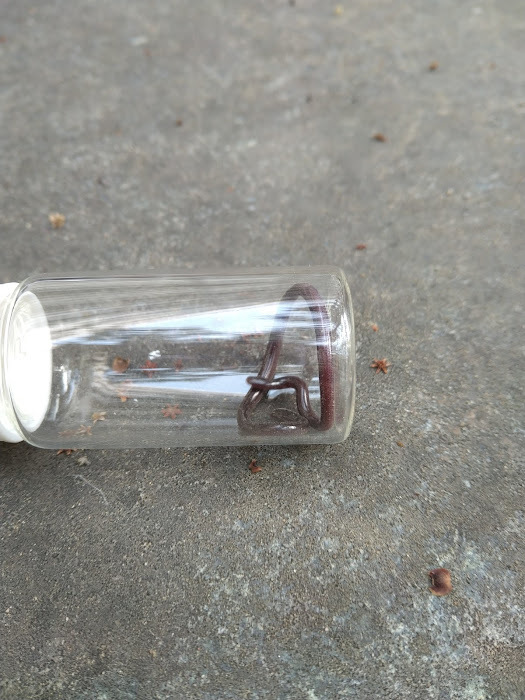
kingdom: Animalia
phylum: Chordata
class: Squamata
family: Typhlopidae
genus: Indotyphlops
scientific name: Indotyphlops braminus
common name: Brahminy blindsnake
